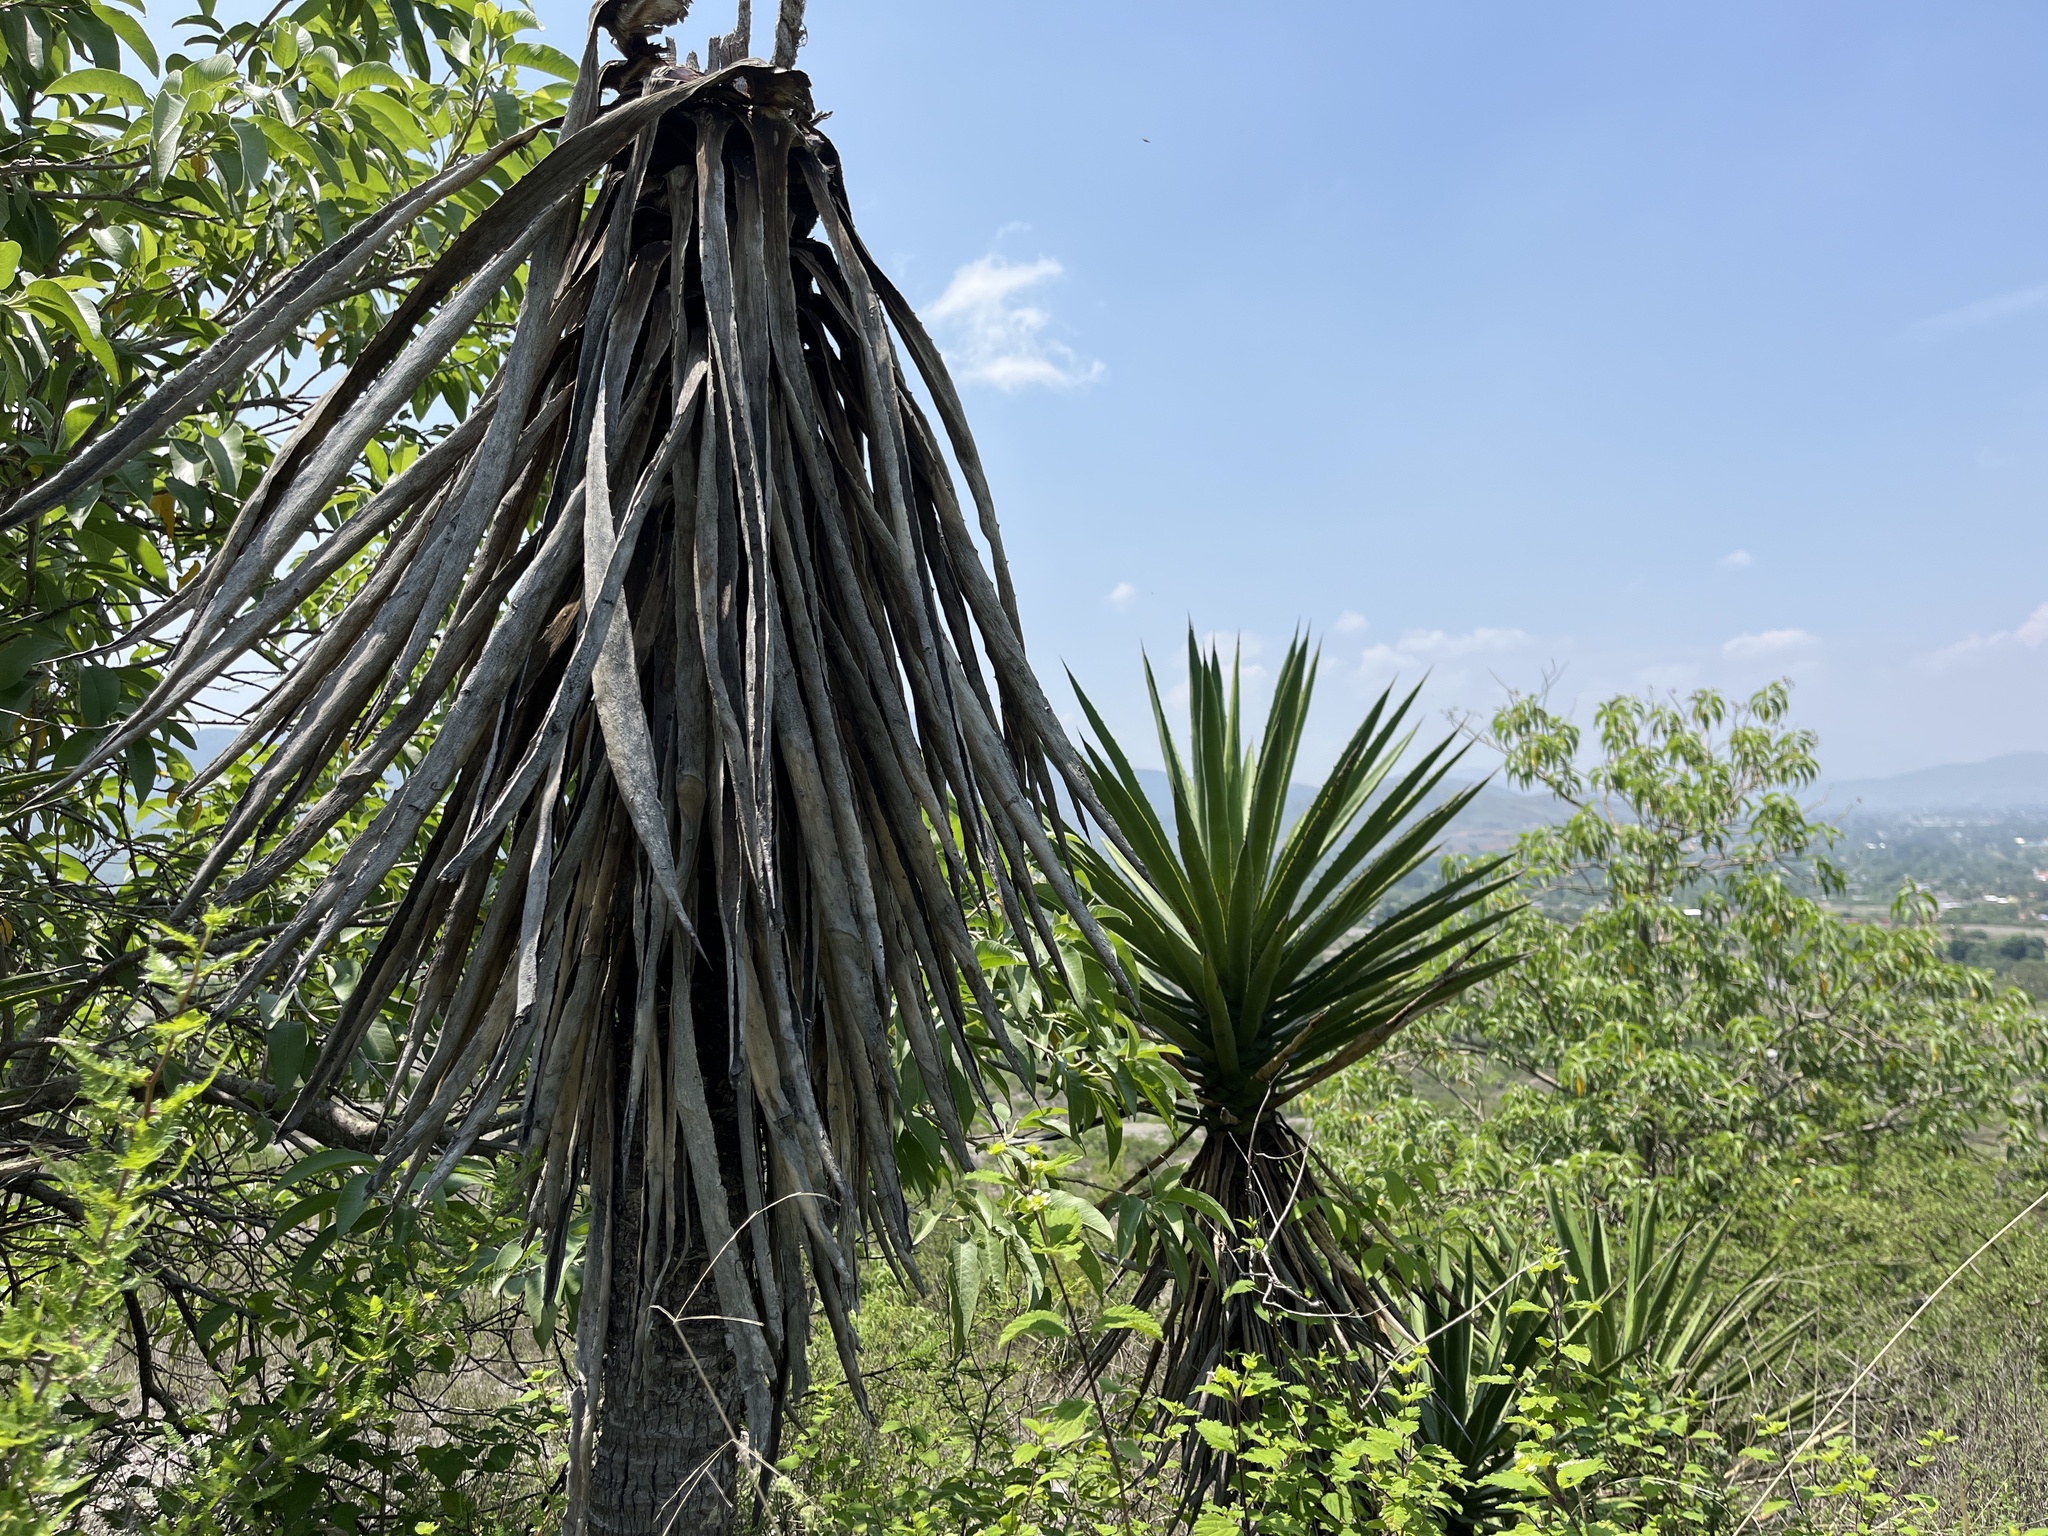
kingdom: Plantae
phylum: Tracheophyta
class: Liliopsida
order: Asparagales
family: Asparagaceae
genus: Agave
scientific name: Agave karwinskii
